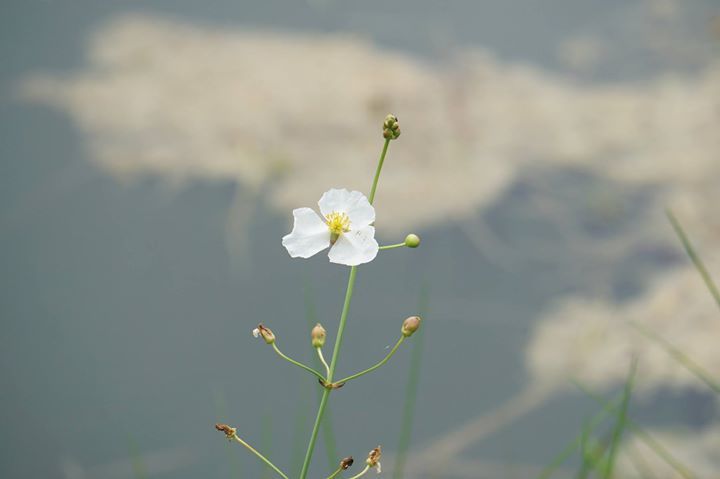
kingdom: Plantae
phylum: Tracheophyta
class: Liliopsida
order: Alismatales
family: Alismataceae
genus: Sagittaria
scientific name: Sagittaria lancifolia
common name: Lance-leaf arrowhead
